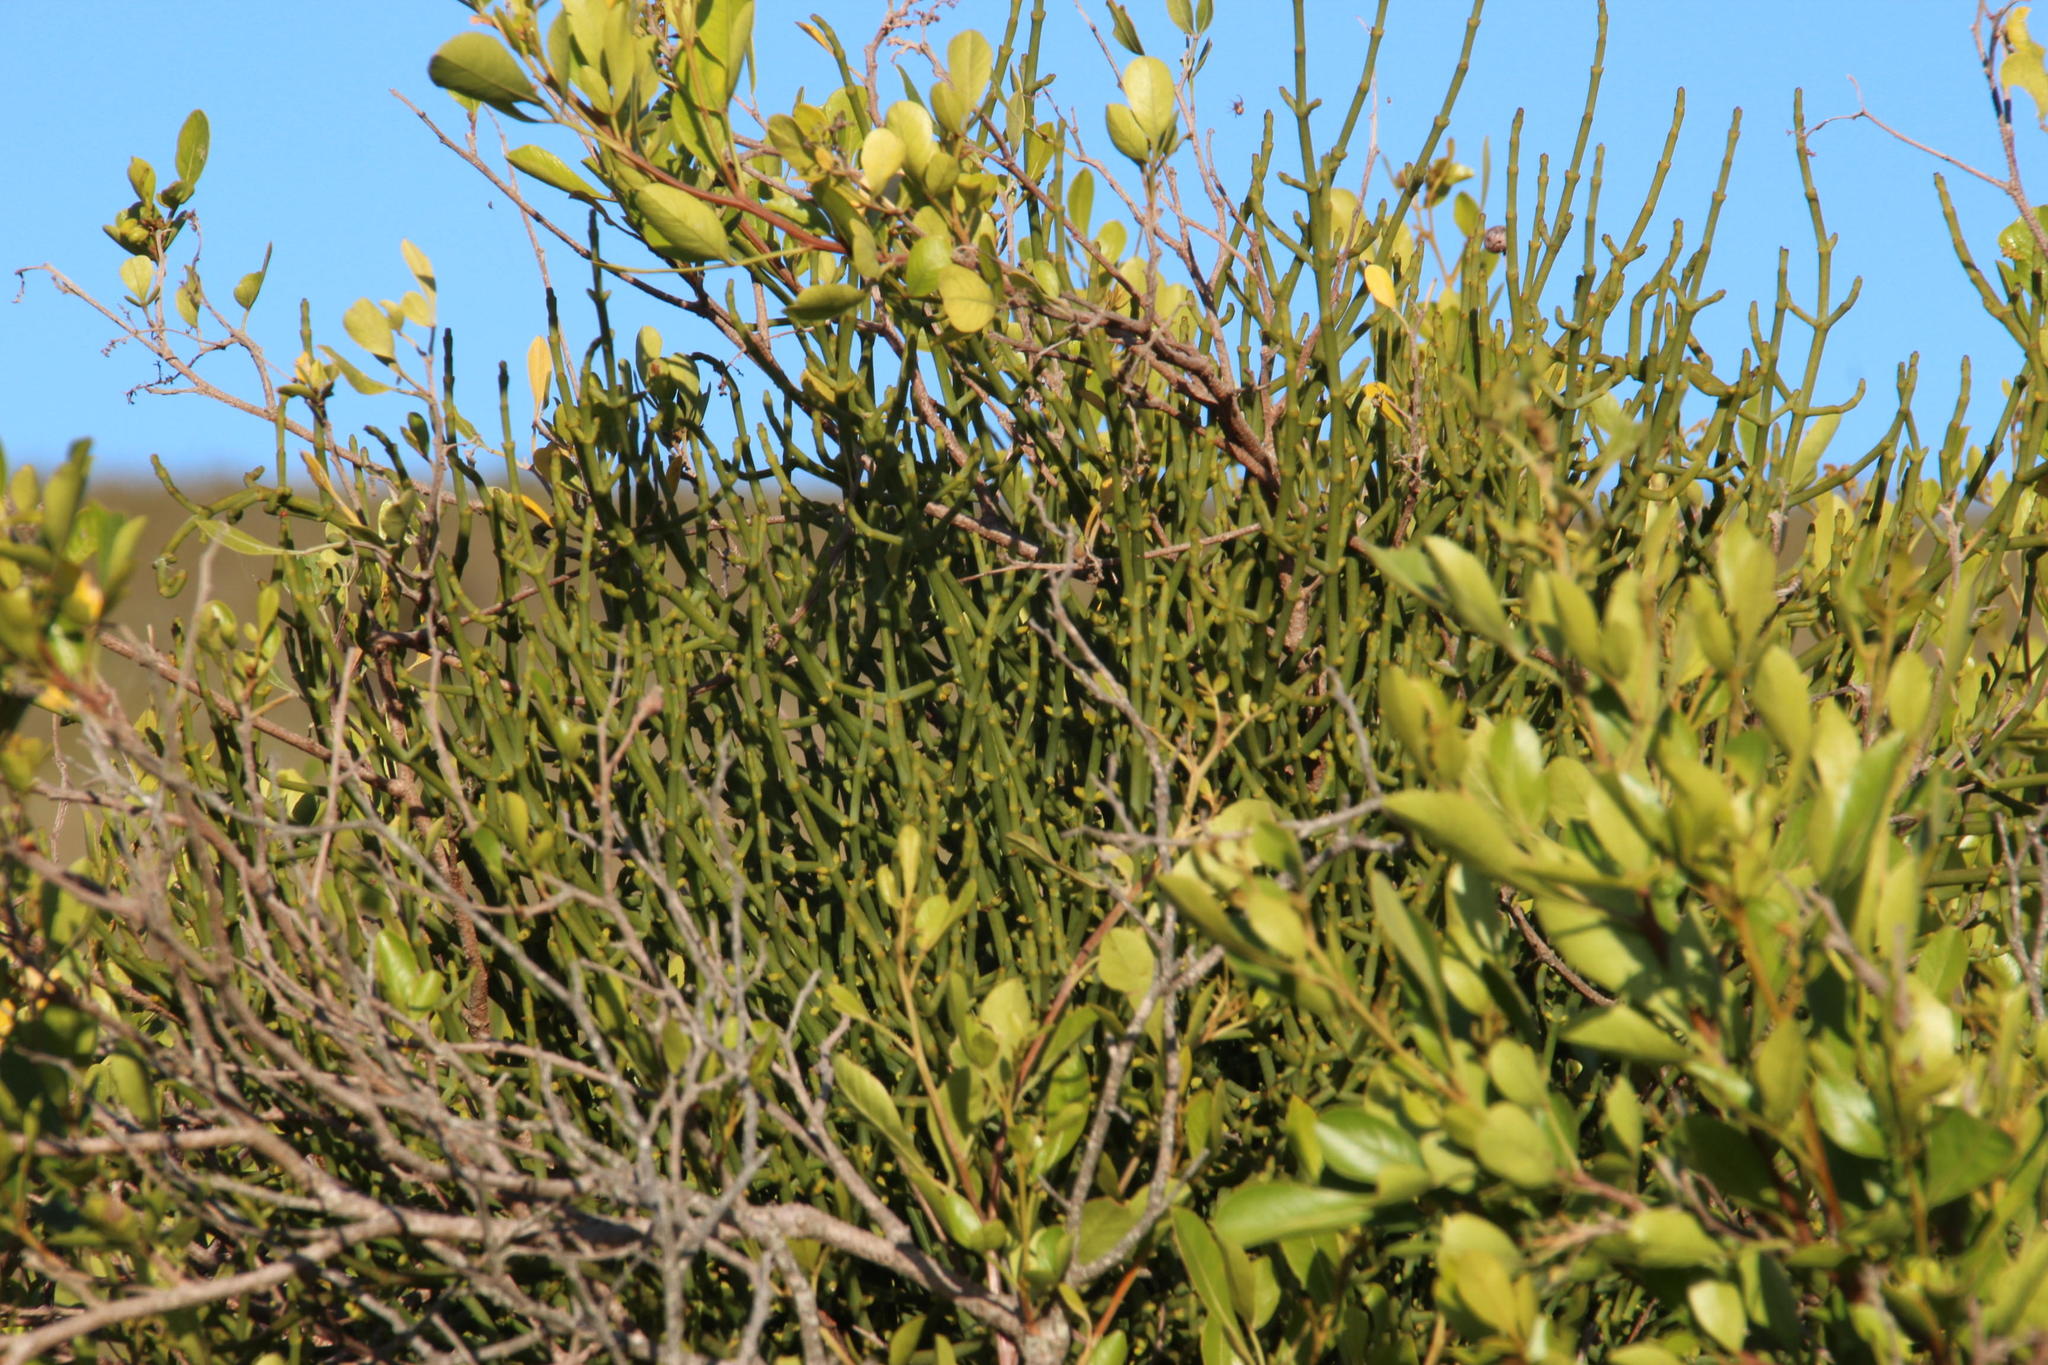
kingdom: Plantae
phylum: Tracheophyta
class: Magnoliopsida
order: Santalales
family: Viscaceae
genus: Viscum
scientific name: Viscum capense
